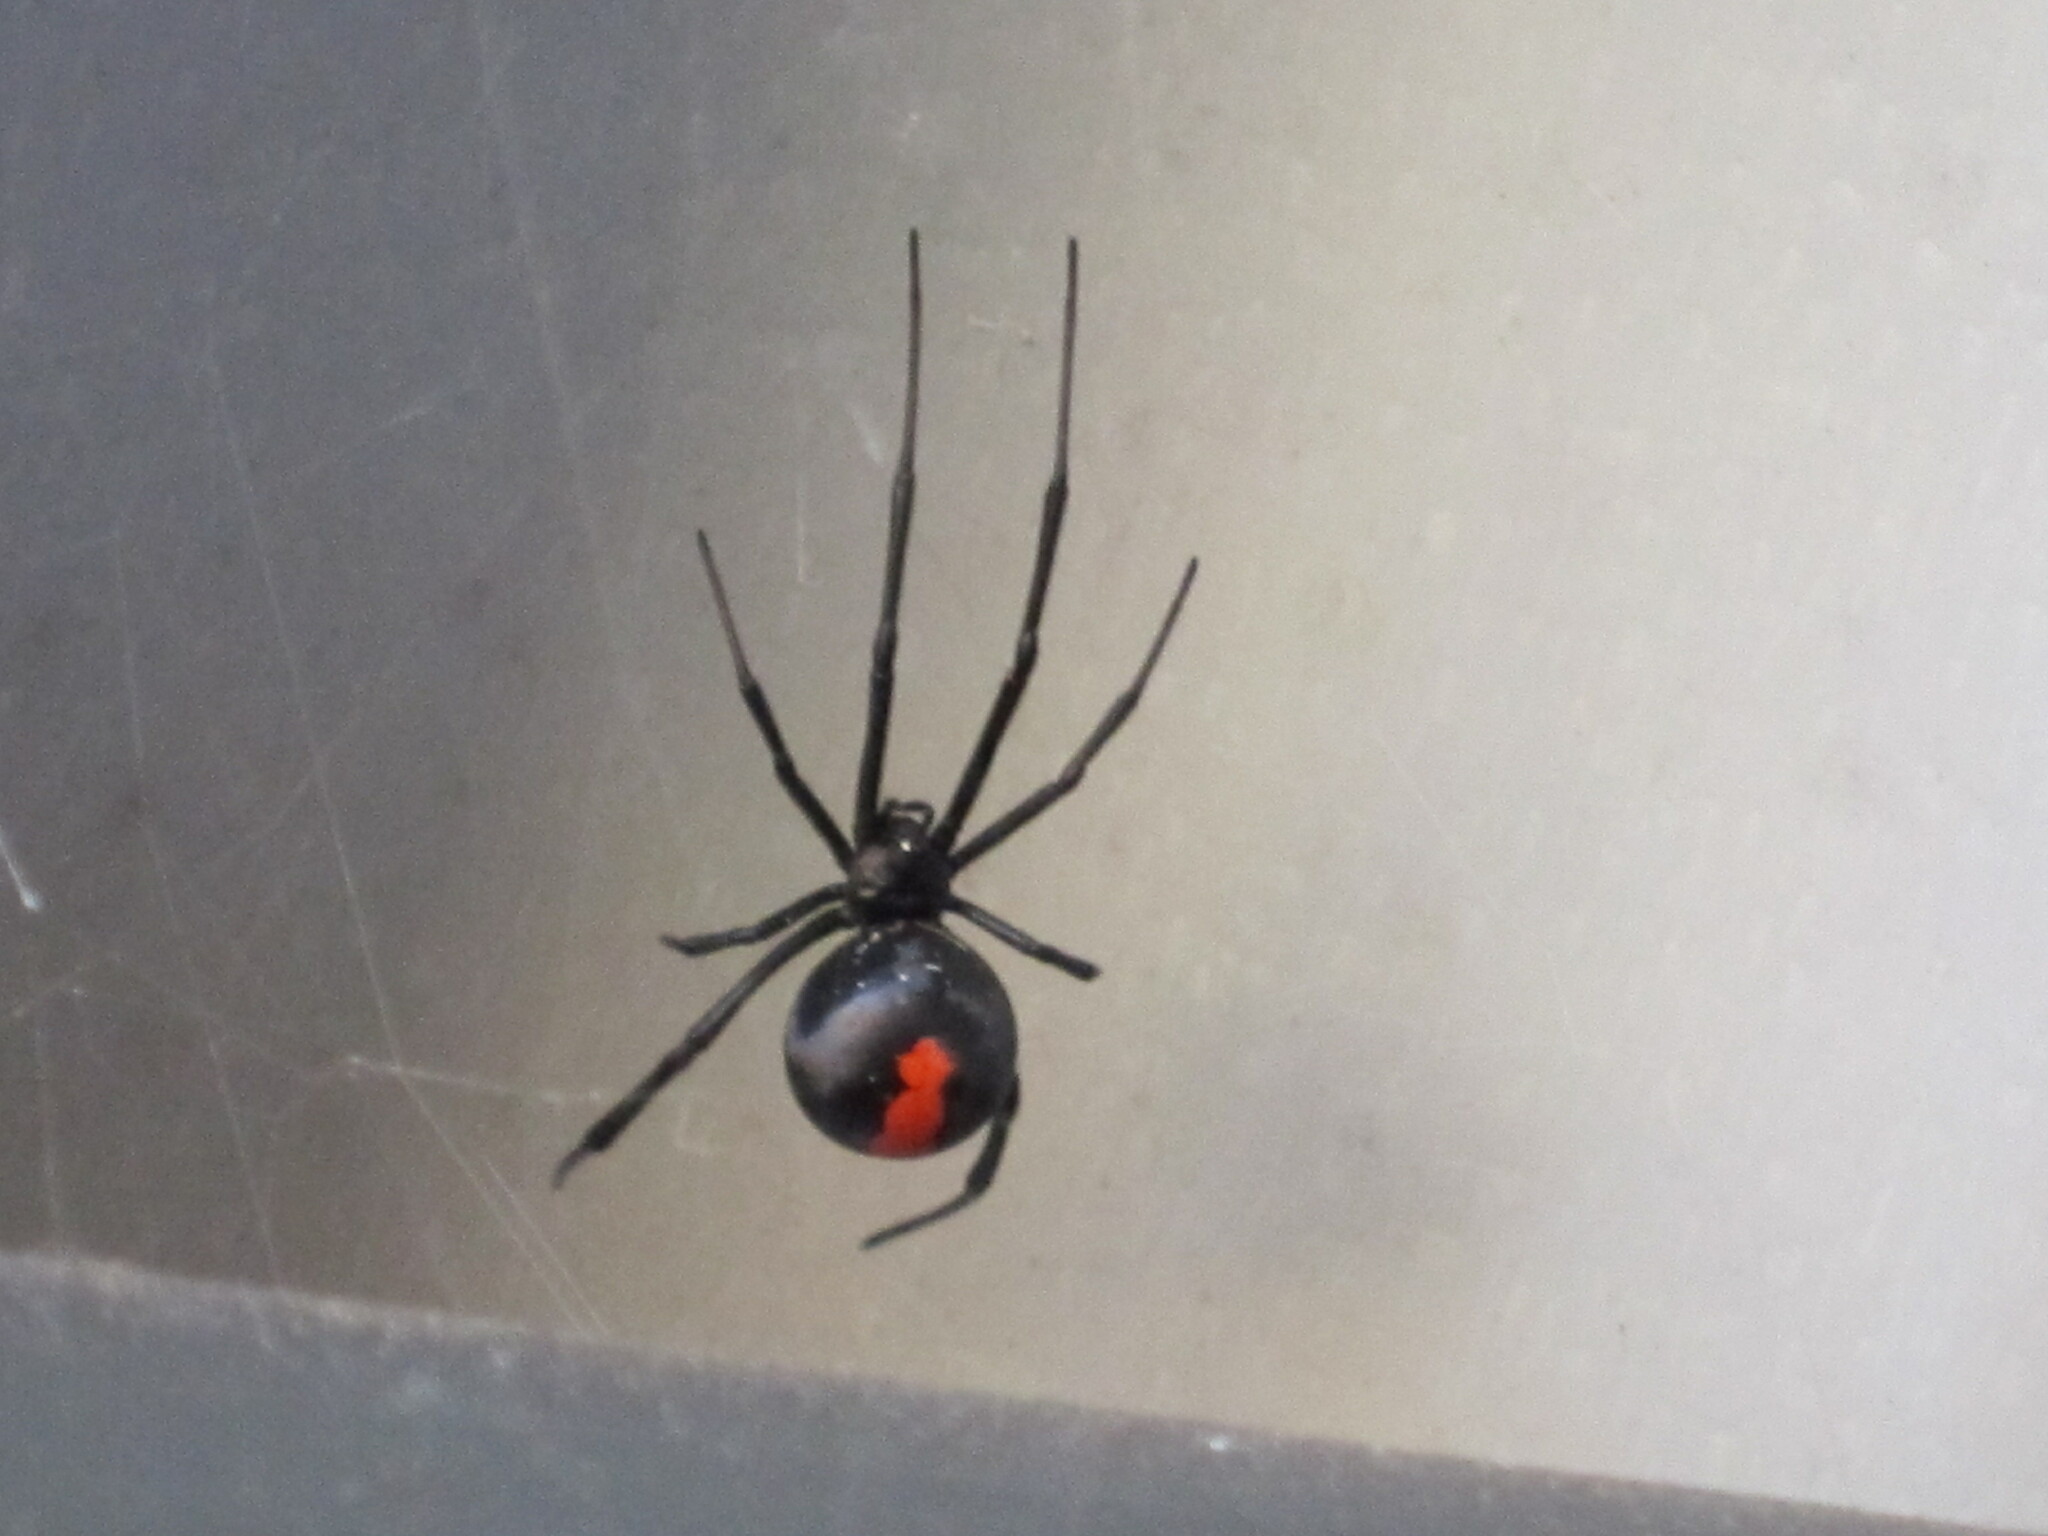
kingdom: Animalia
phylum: Arthropoda
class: Arachnida
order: Araneae
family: Theridiidae
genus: Latrodectus
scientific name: Latrodectus hasselti
